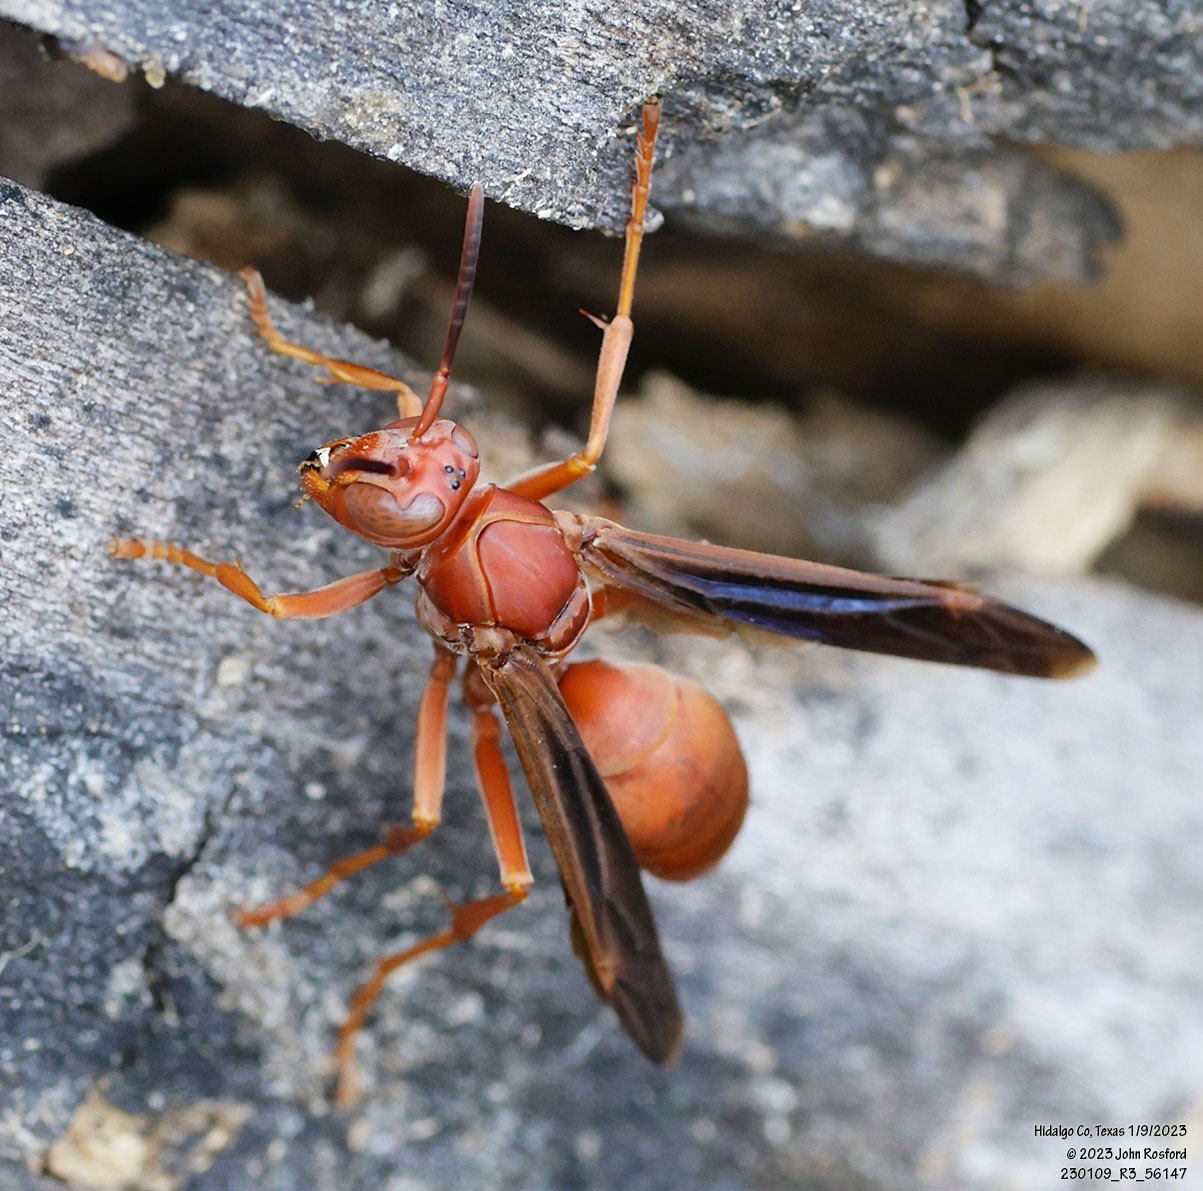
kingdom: Animalia
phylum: Arthropoda
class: Insecta
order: Hymenoptera
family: Vespidae
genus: Fuscopolistes
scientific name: Fuscopolistes
